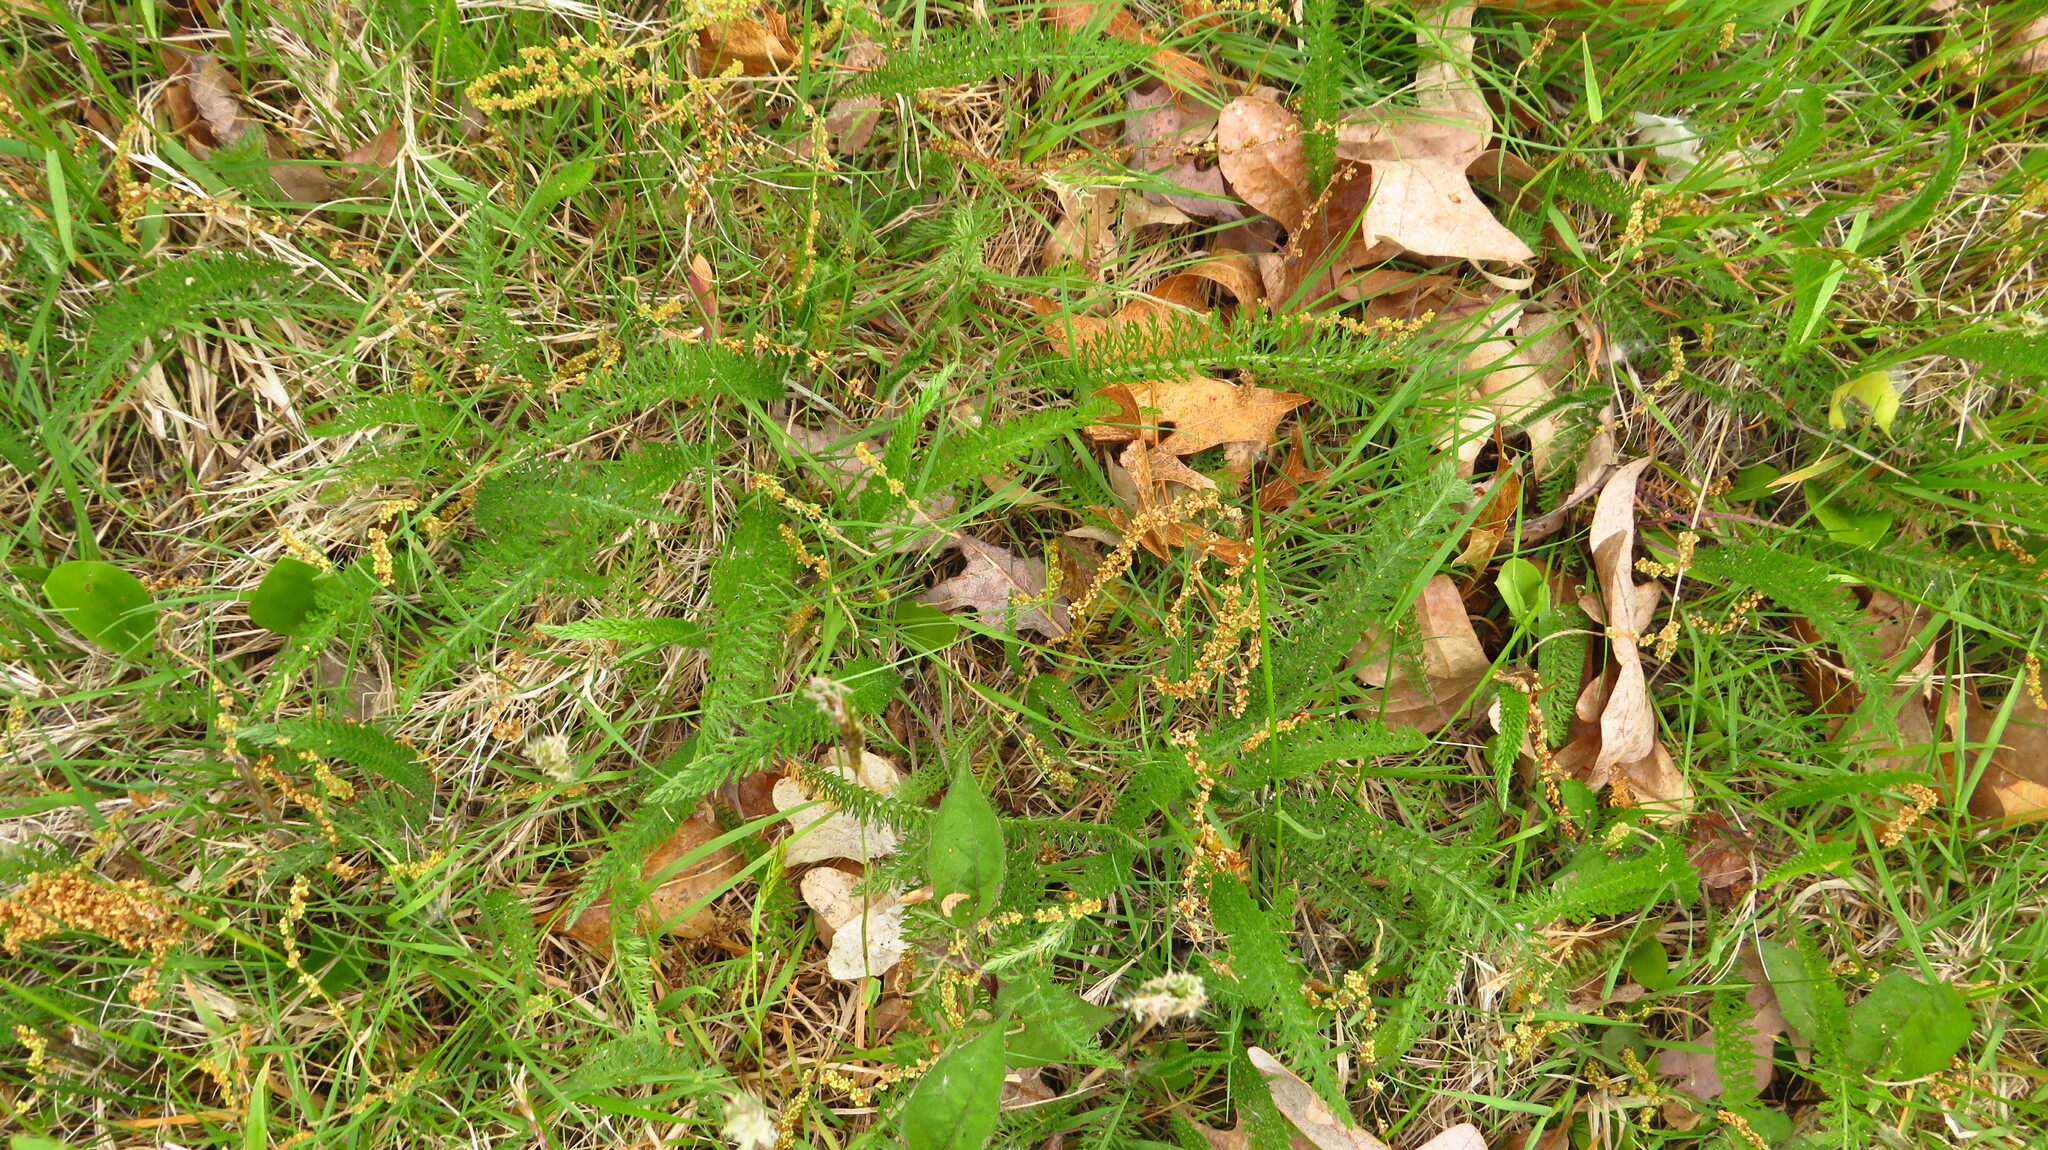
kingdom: Plantae
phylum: Tracheophyta
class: Magnoliopsida
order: Asterales
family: Asteraceae
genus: Achillea
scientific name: Achillea millefolium
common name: Yarrow
